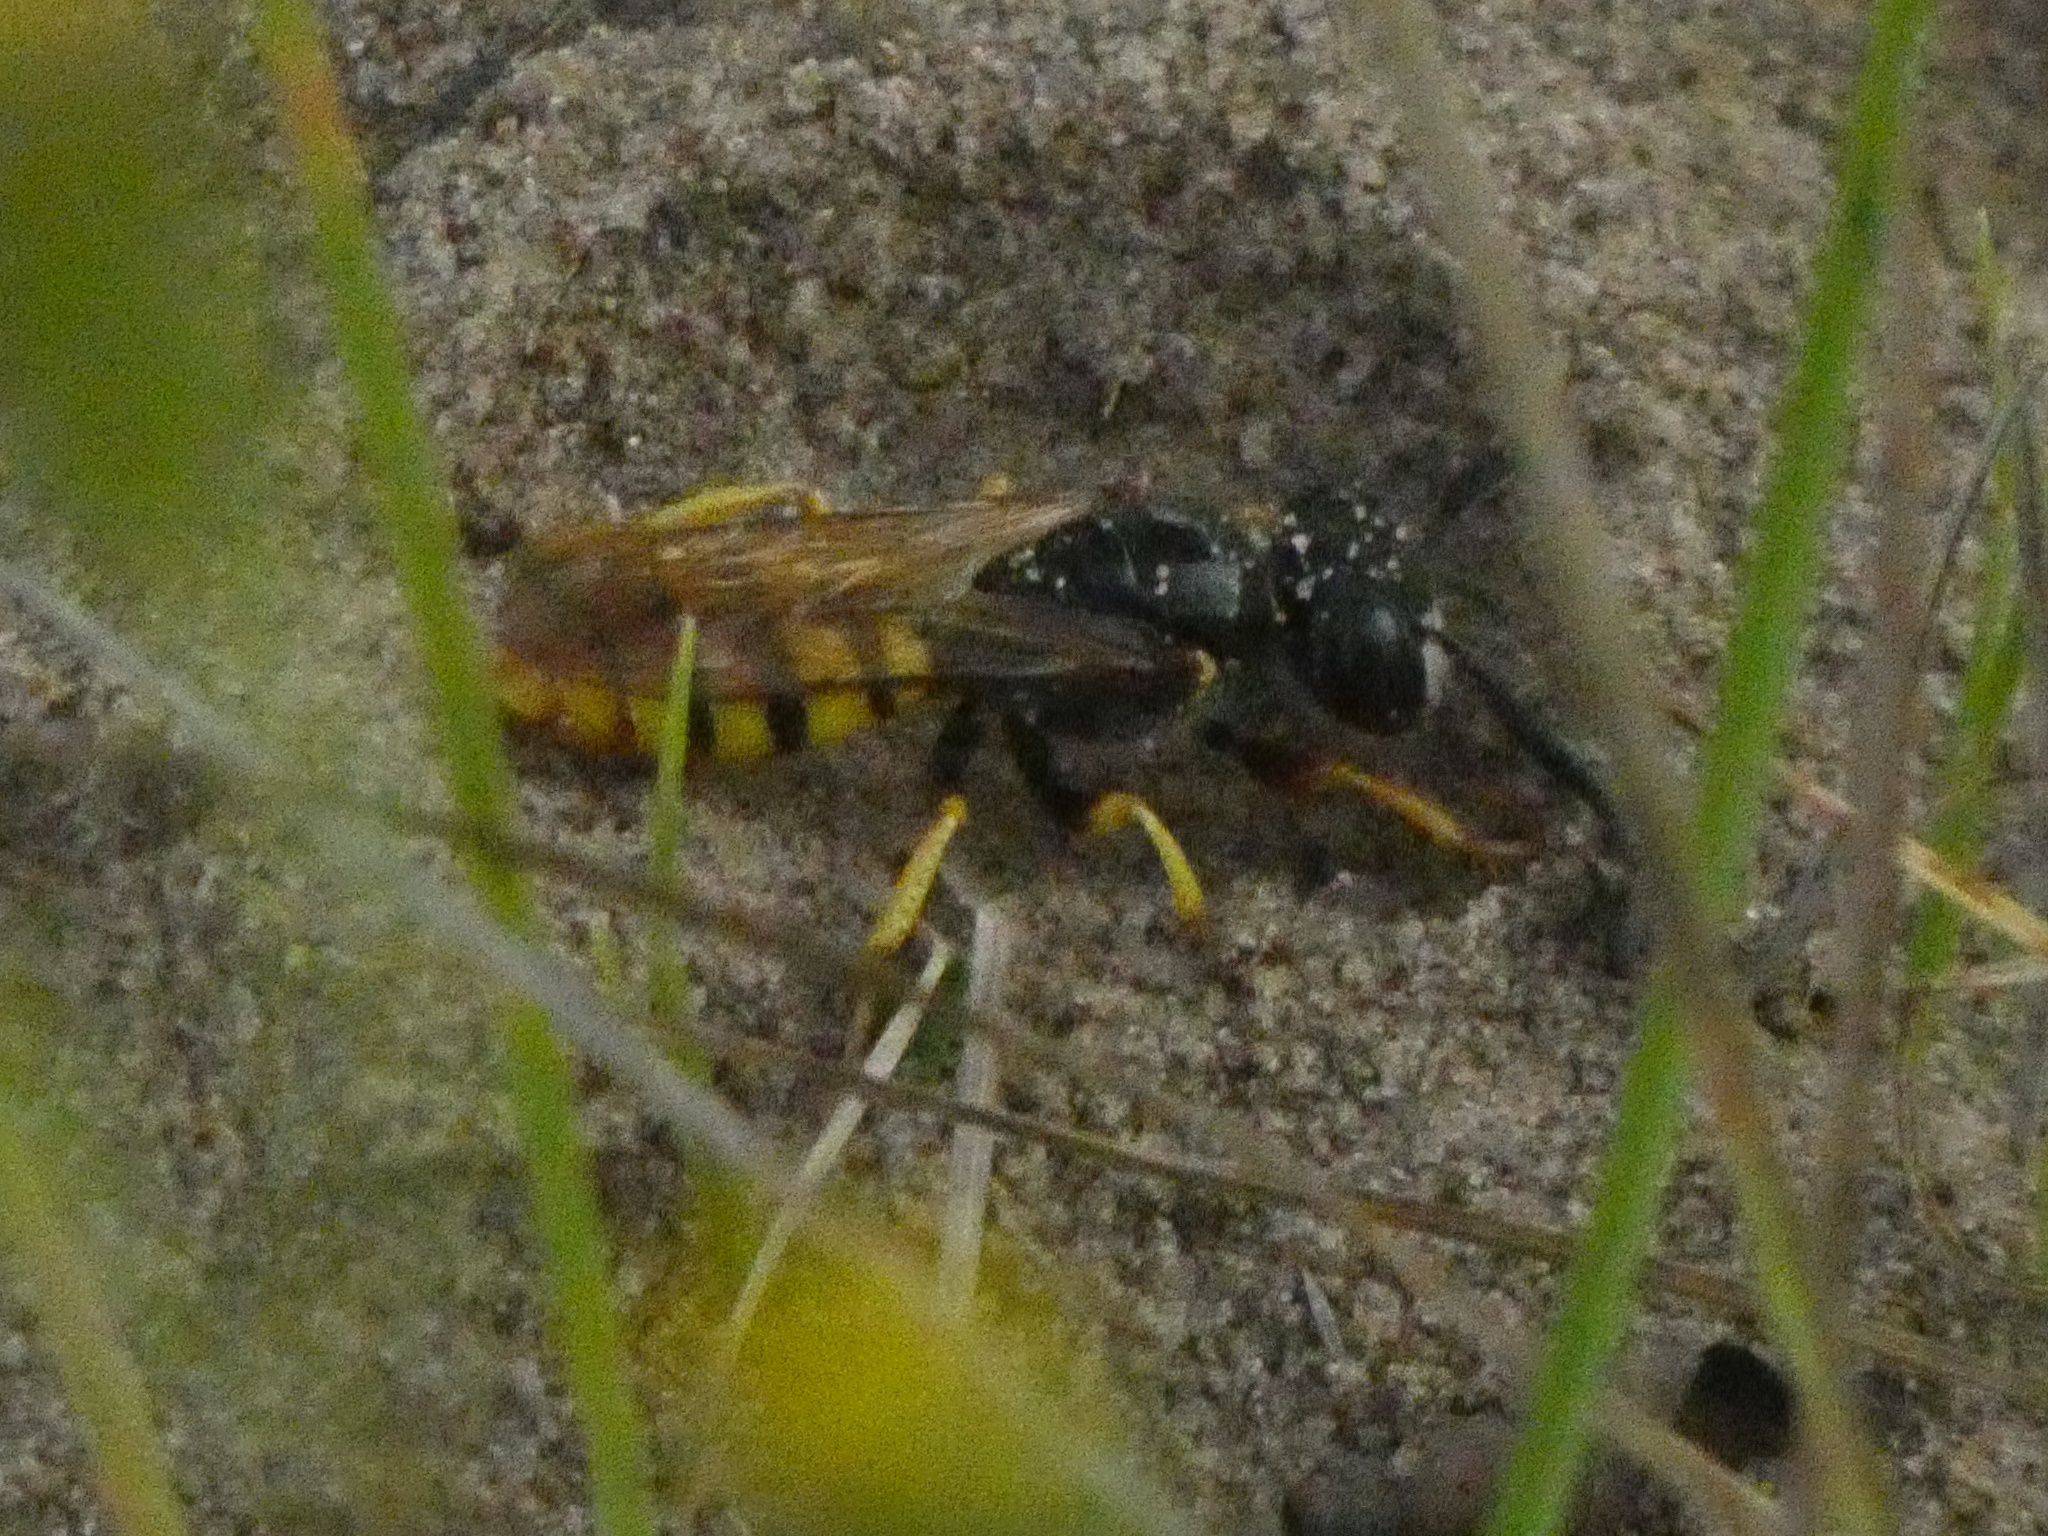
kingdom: Animalia
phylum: Arthropoda
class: Insecta
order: Hymenoptera
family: Crabronidae
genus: Philanthus
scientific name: Philanthus triangulum
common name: Bee wolf
